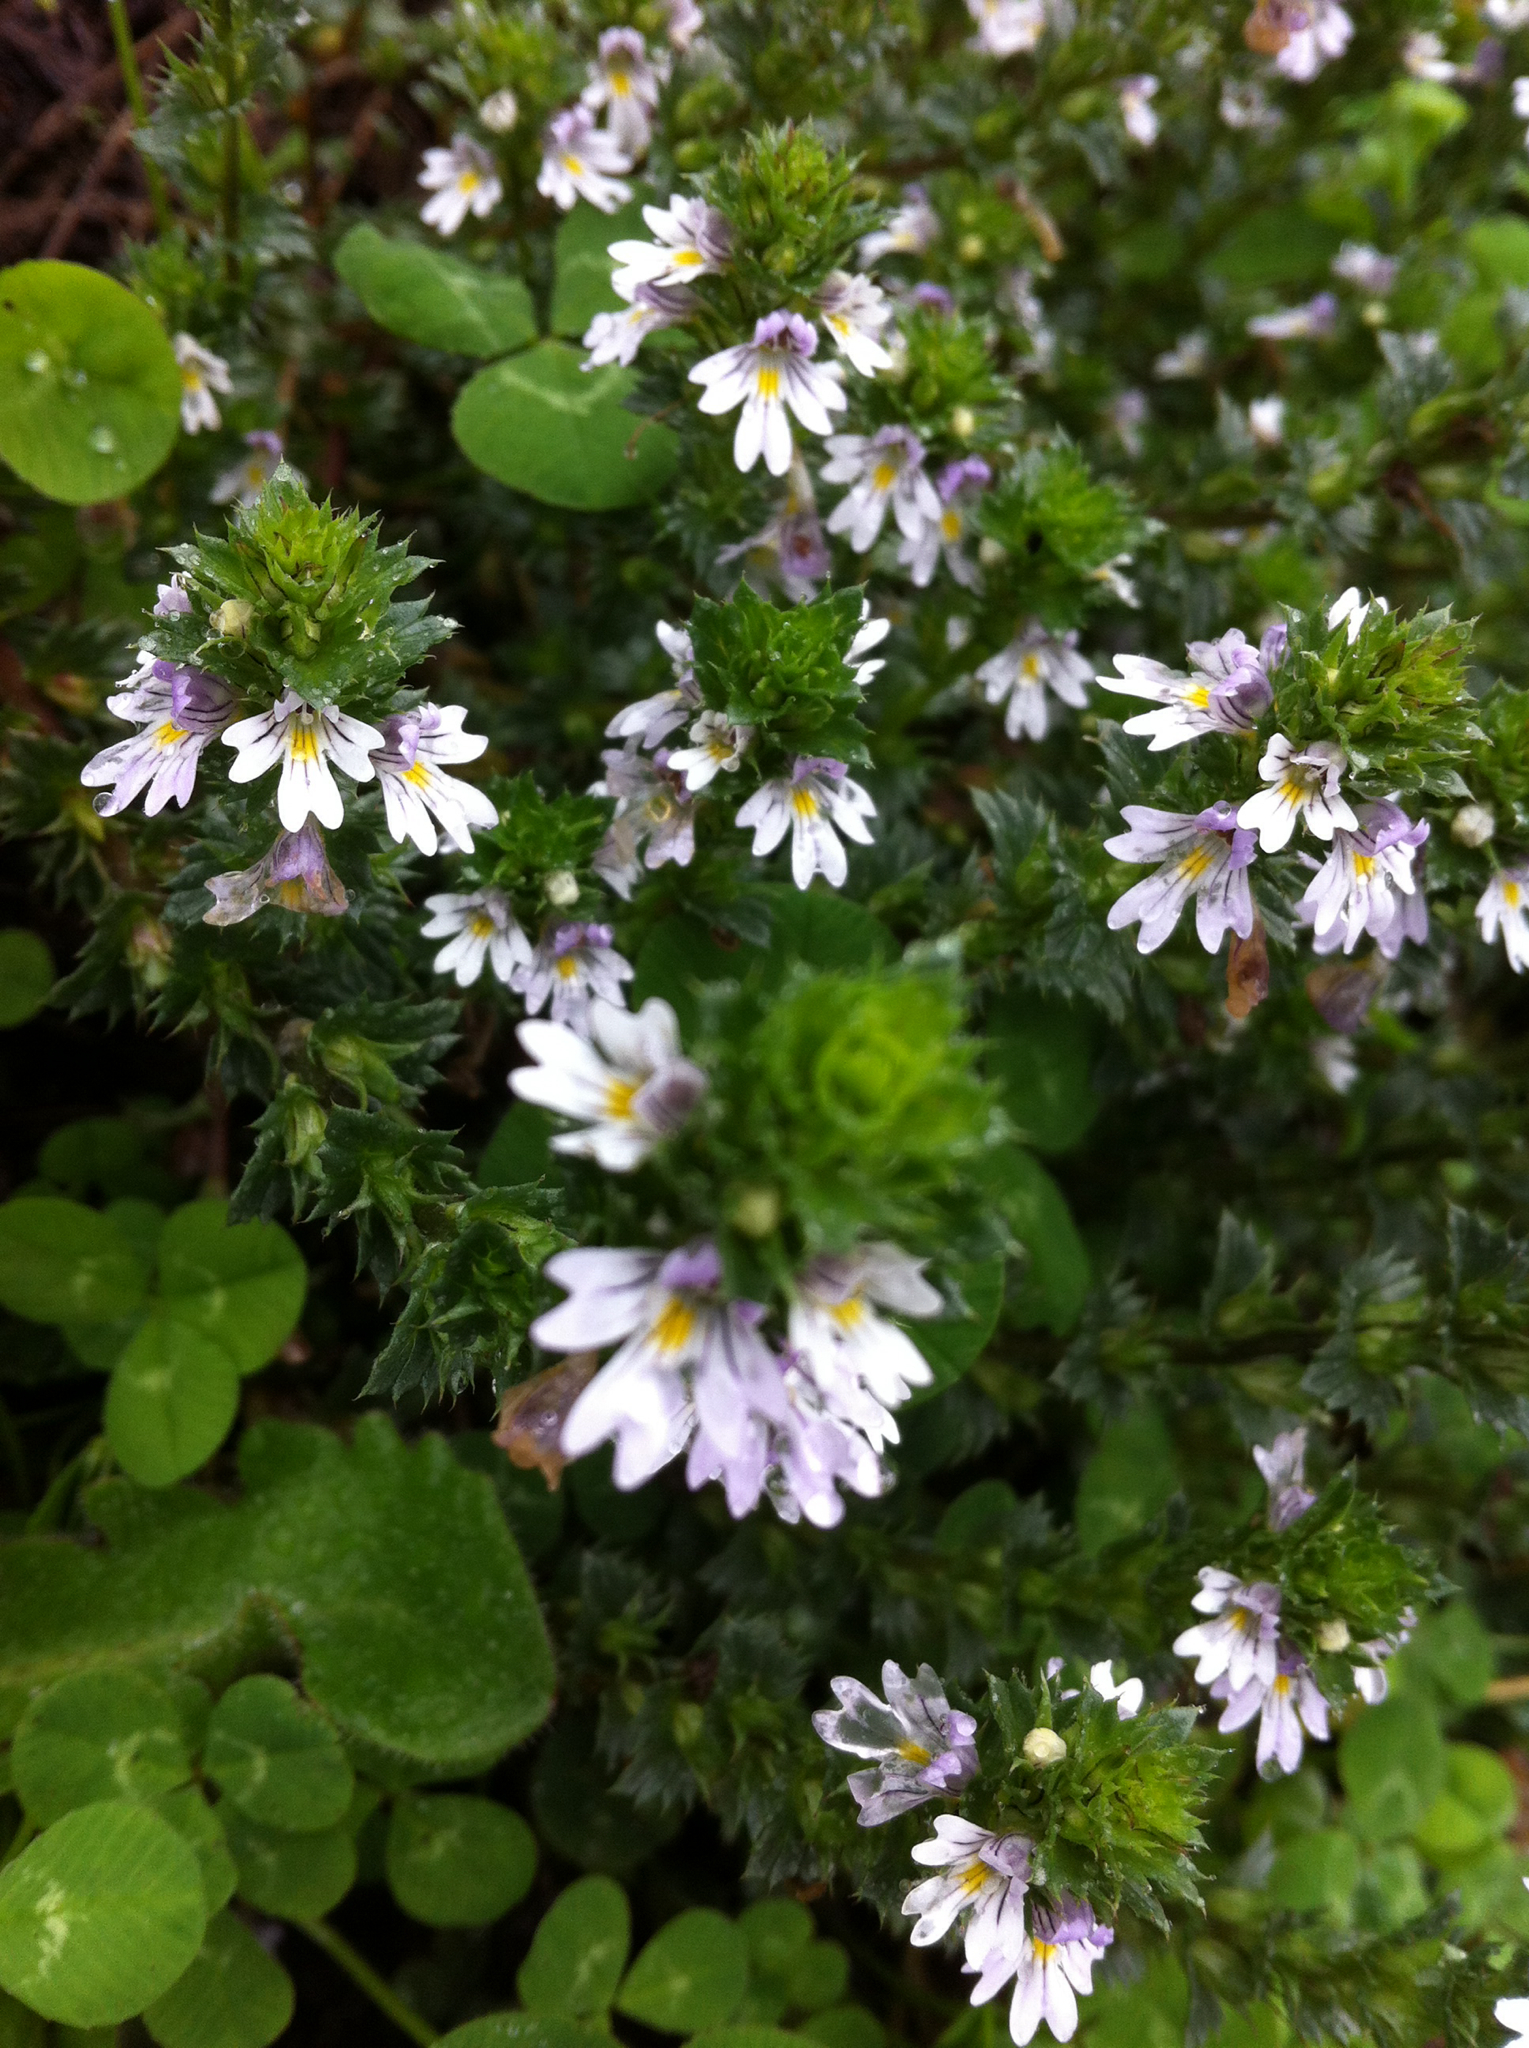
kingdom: Plantae
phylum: Tracheophyta
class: Magnoliopsida
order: Lamiales
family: Orobanchaceae
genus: Euphrasia
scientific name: Euphrasia nemorosa
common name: Common eyebright
